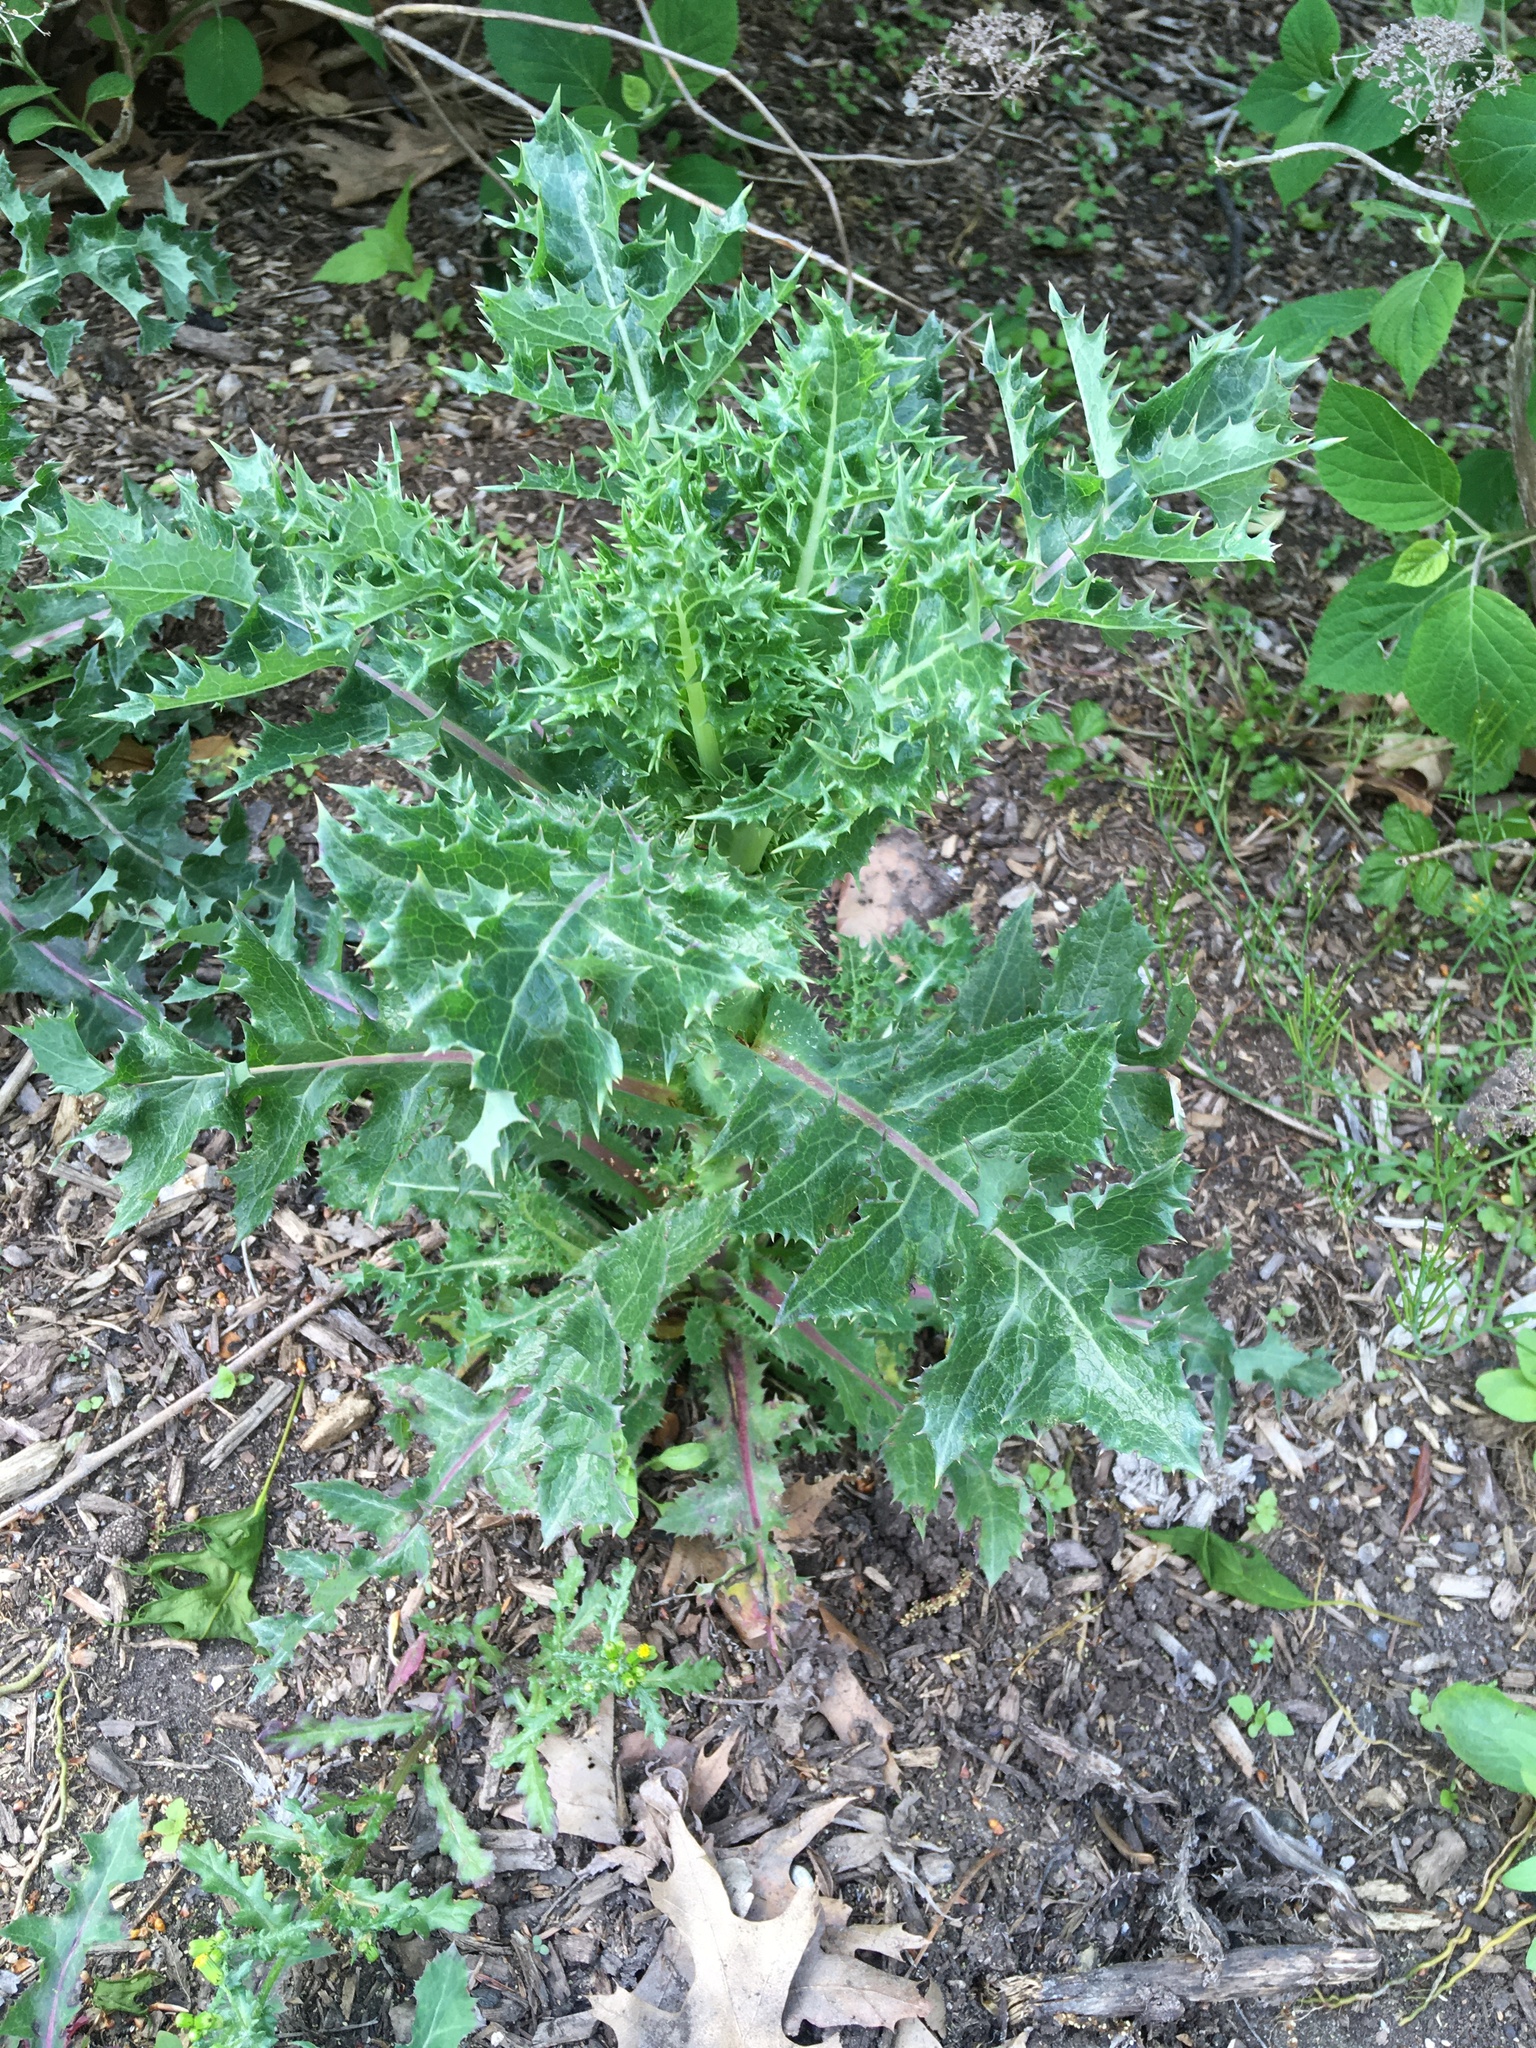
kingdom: Plantae
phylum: Tracheophyta
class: Magnoliopsida
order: Asterales
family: Asteraceae
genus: Sonchus
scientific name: Sonchus asper
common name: Prickly sow-thistle
